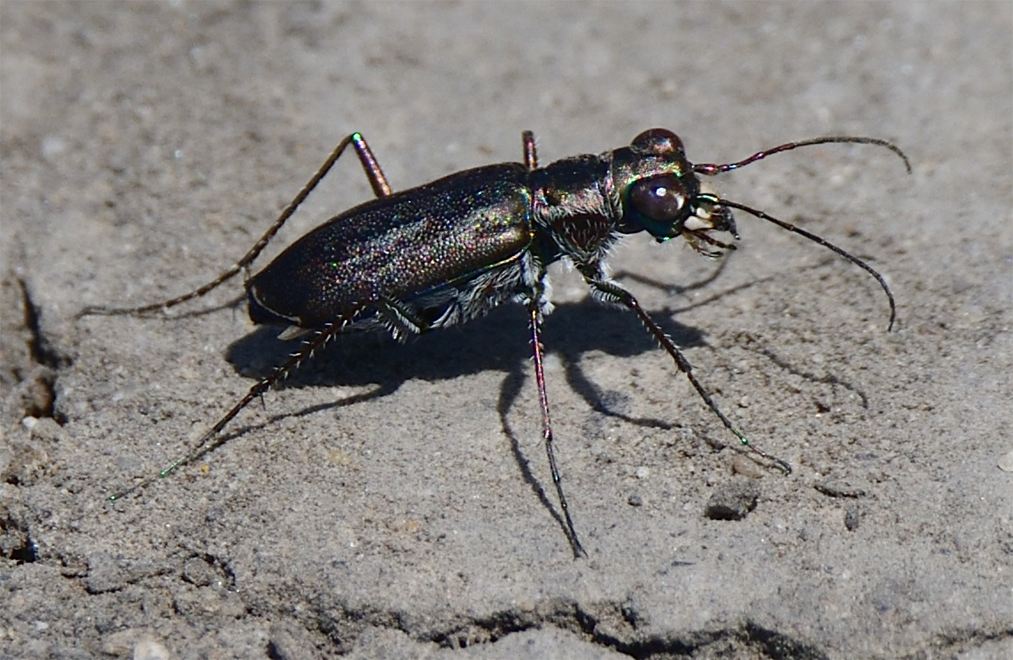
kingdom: Animalia
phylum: Arthropoda
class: Insecta
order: Coleoptera
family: Carabidae
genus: Cicindela
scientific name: Cicindela punctulata
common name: Punctured tiger beetle
